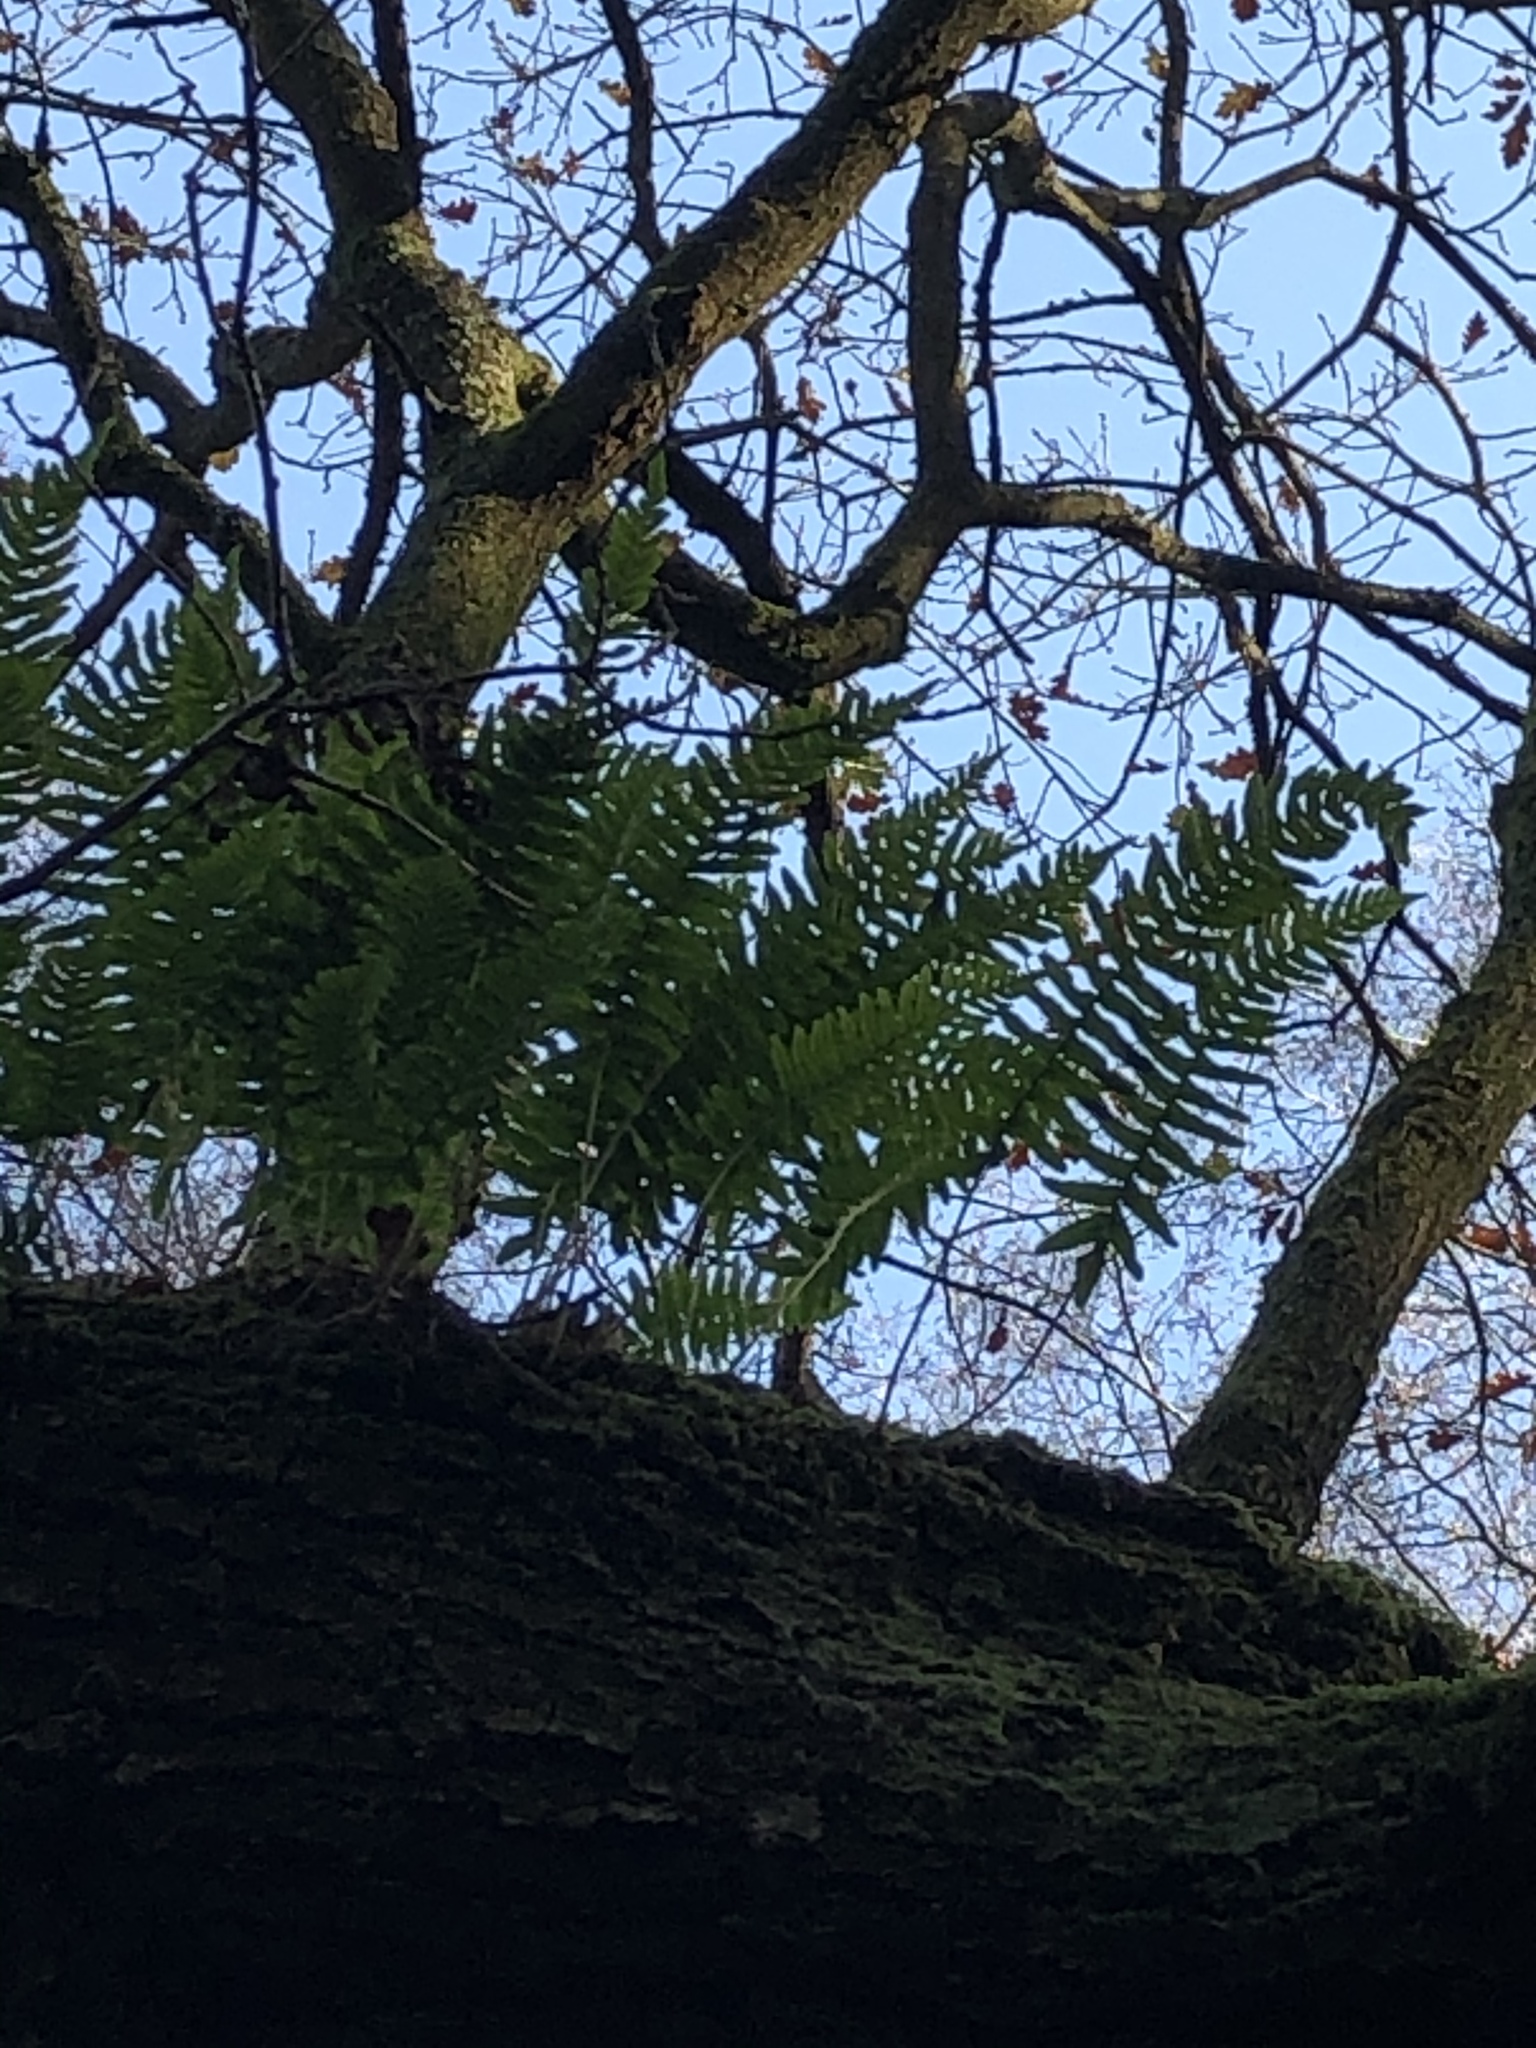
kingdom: Plantae
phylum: Tracheophyta
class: Polypodiopsida
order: Polypodiales
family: Polypodiaceae
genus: Polypodium
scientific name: Polypodium interjectum
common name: Intermediate polypody
